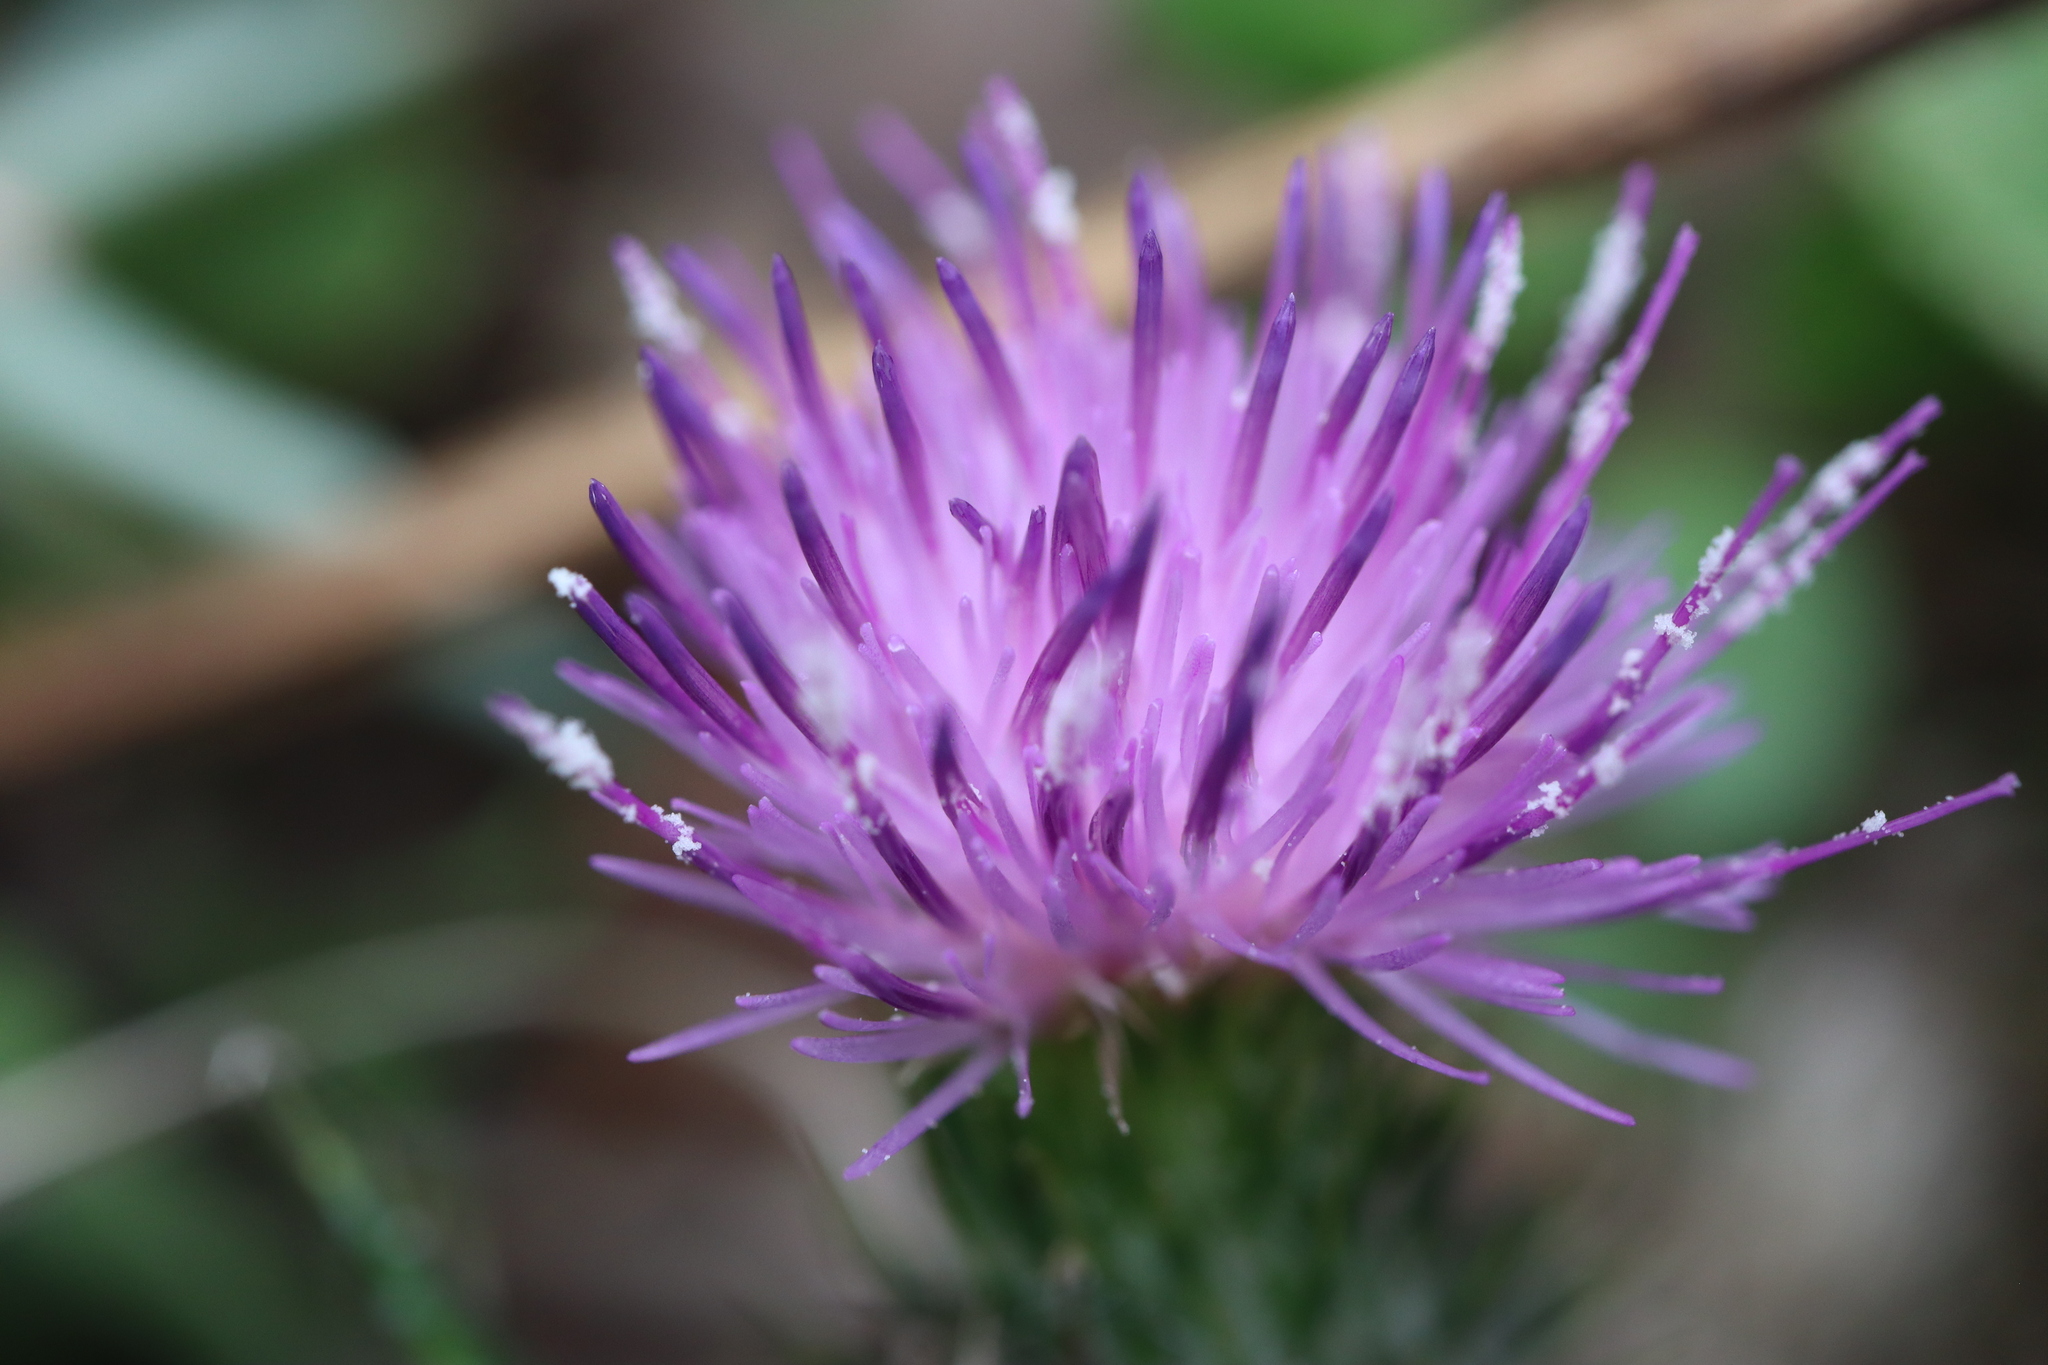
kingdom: Plantae
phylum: Tracheophyta
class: Magnoliopsida
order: Asterales
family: Asteraceae
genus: Cirsium
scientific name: Cirsium vulgare
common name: Bull thistle
